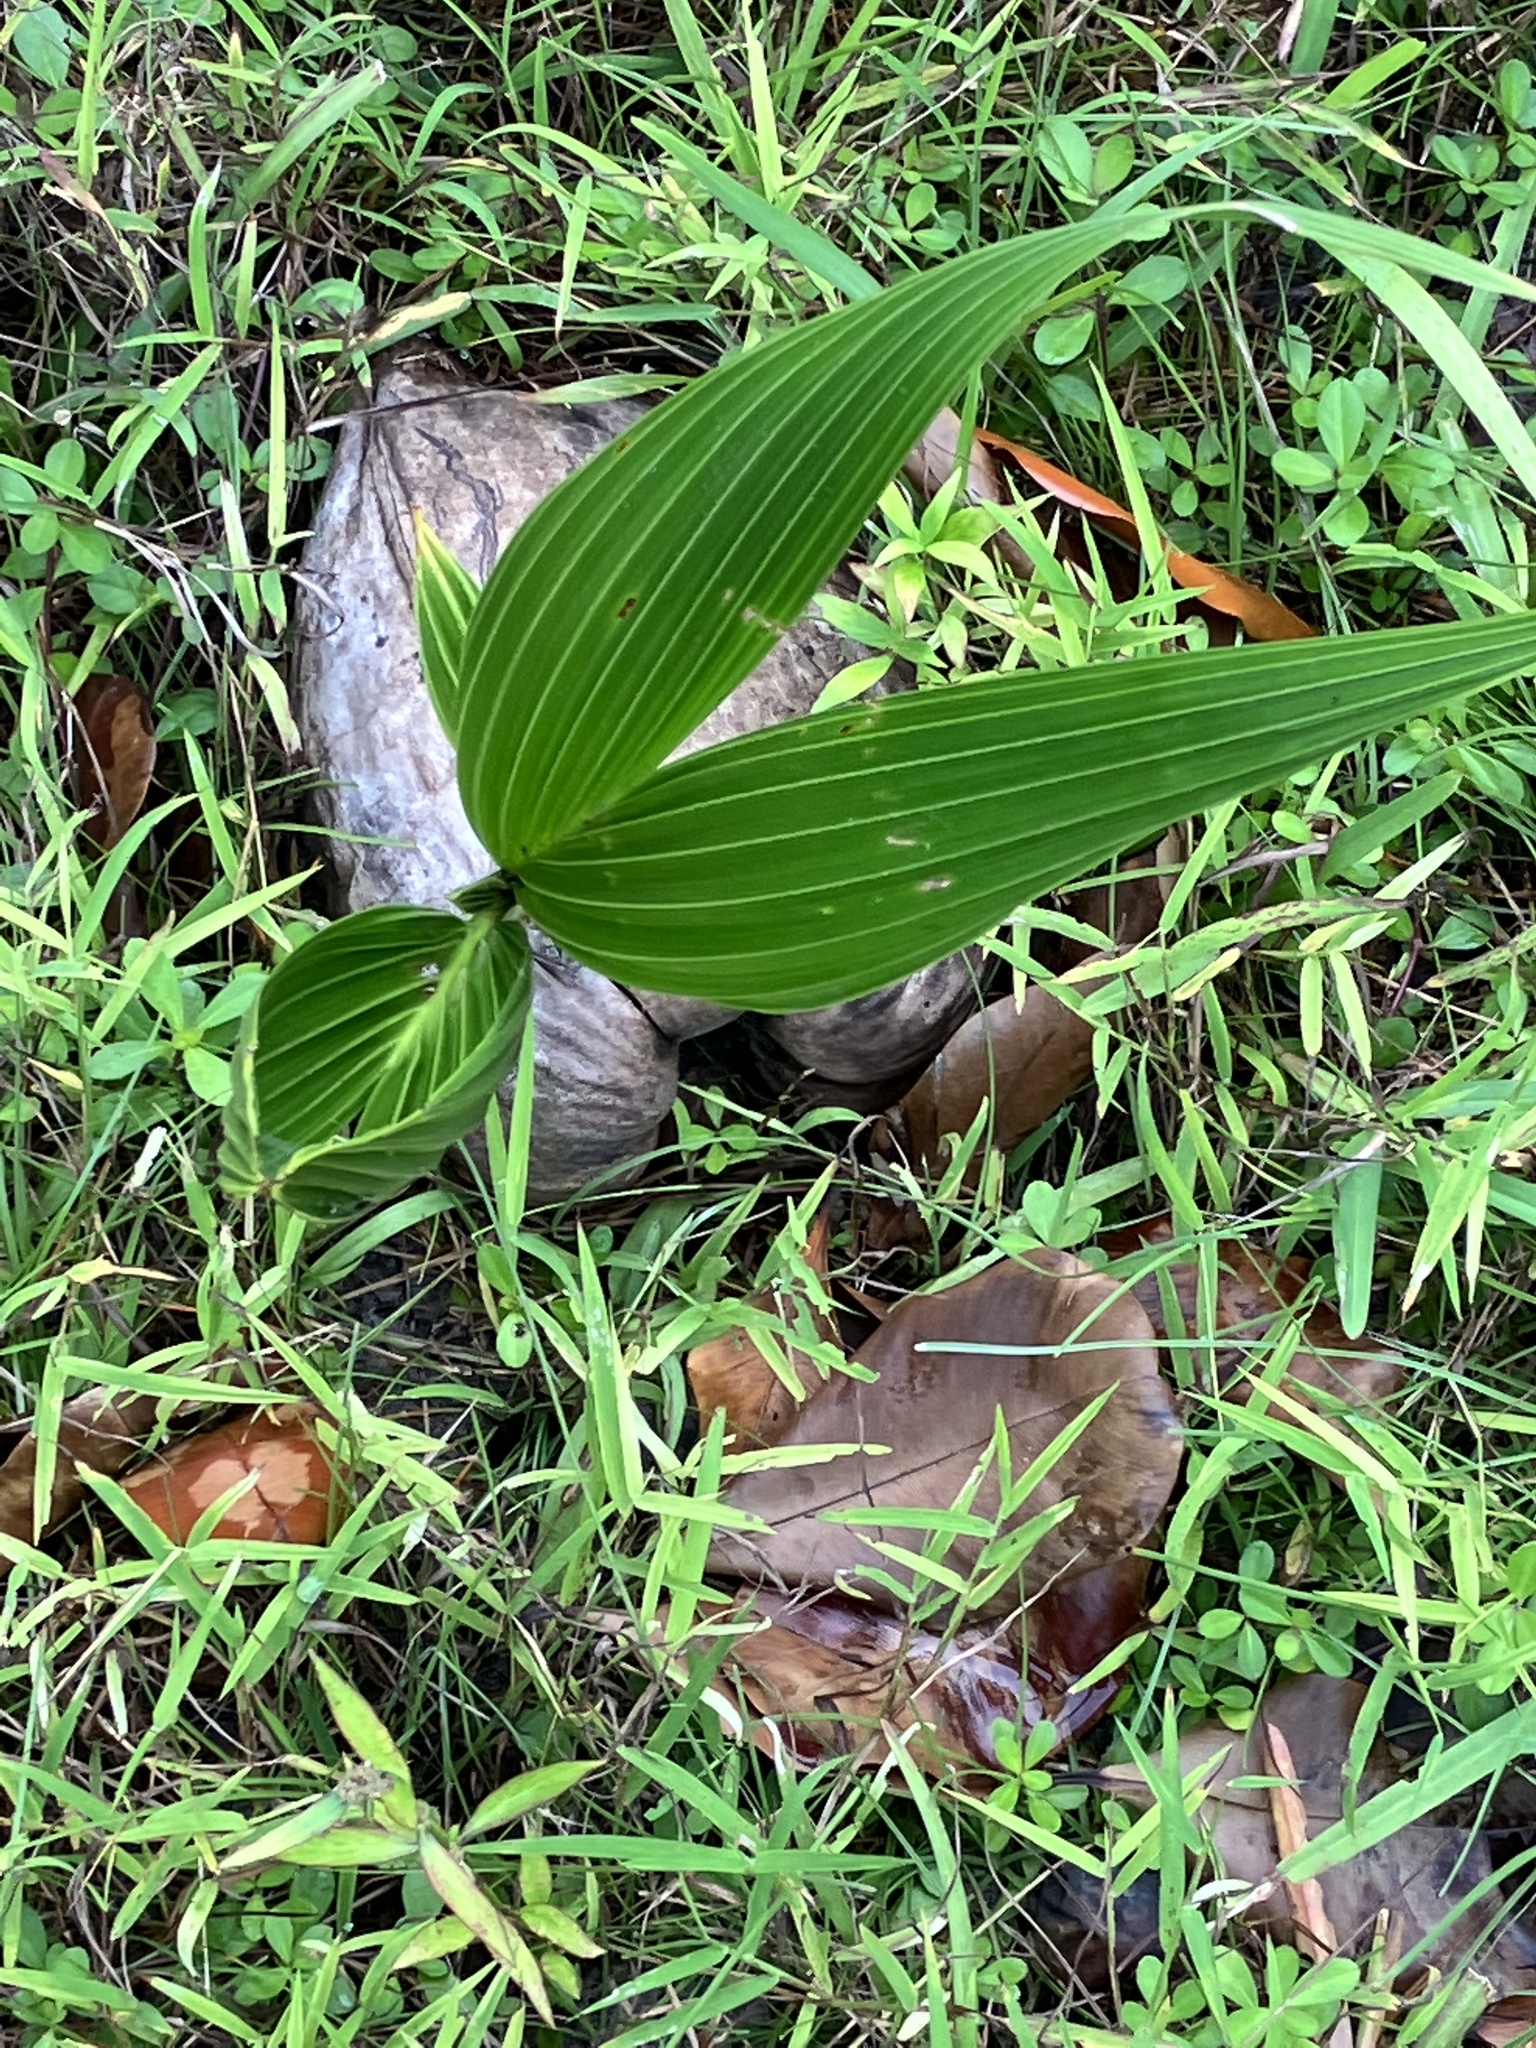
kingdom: Plantae
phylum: Tracheophyta
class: Liliopsida
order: Arecales
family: Arecaceae
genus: Cocos
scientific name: Cocos nucifera
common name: Coconut palm
